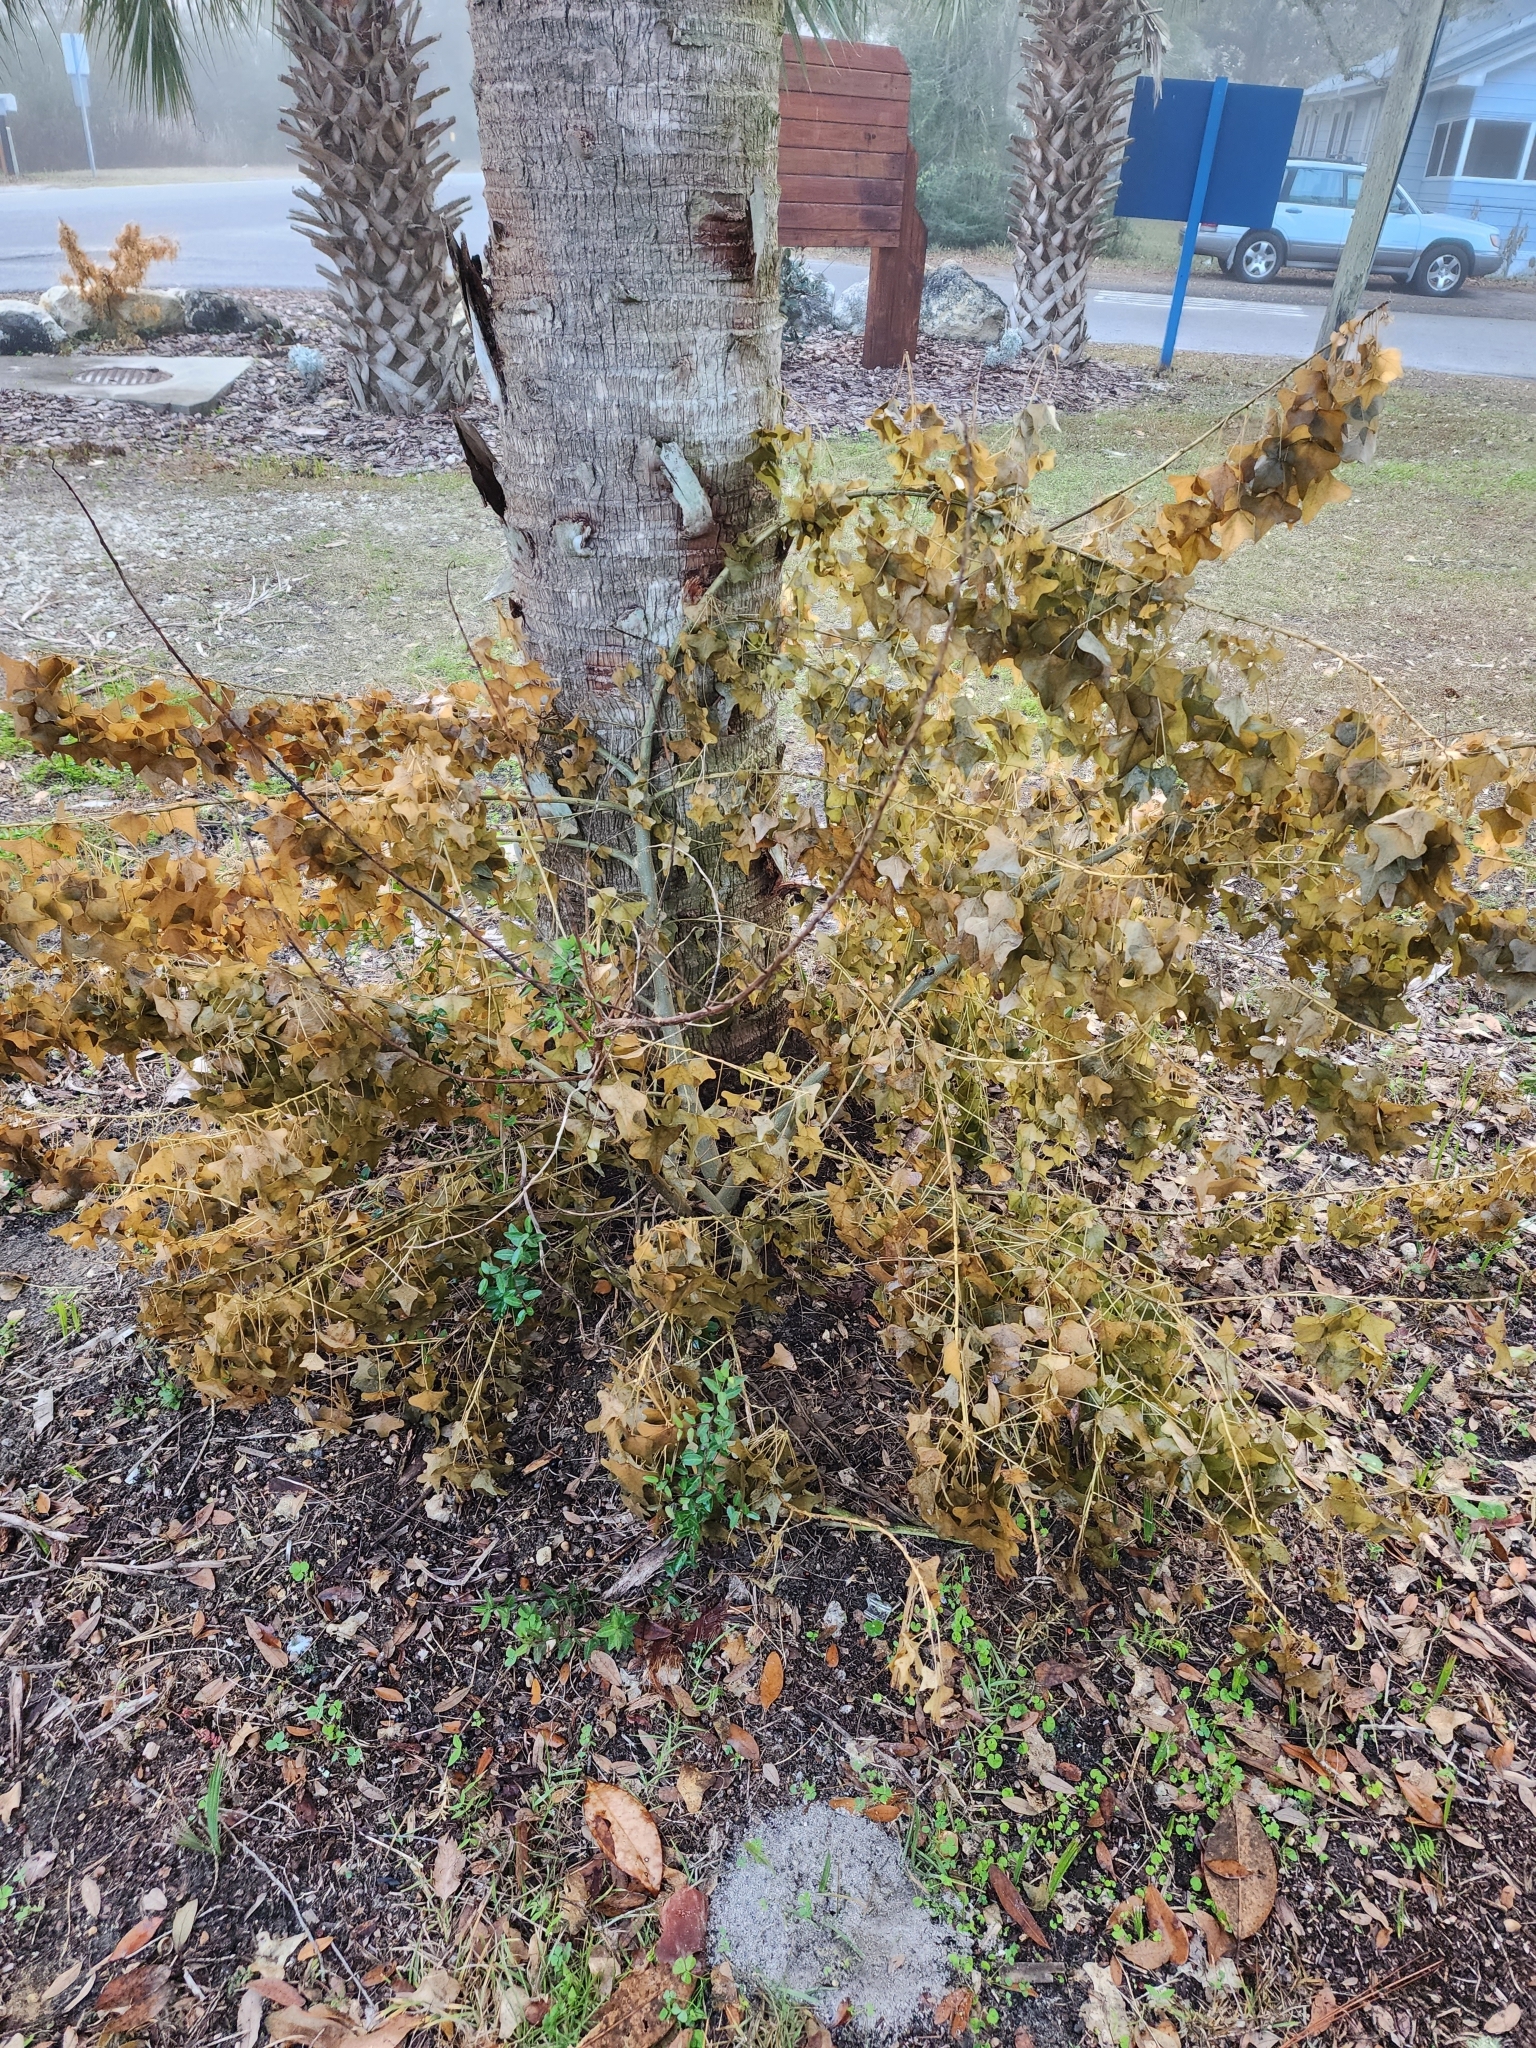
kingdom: Plantae
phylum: Tracheophyta
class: Magnoliopsida
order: Fabales
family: Fabaceae
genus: Erythrina
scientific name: Erythrina herbacea
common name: Coral-bean
